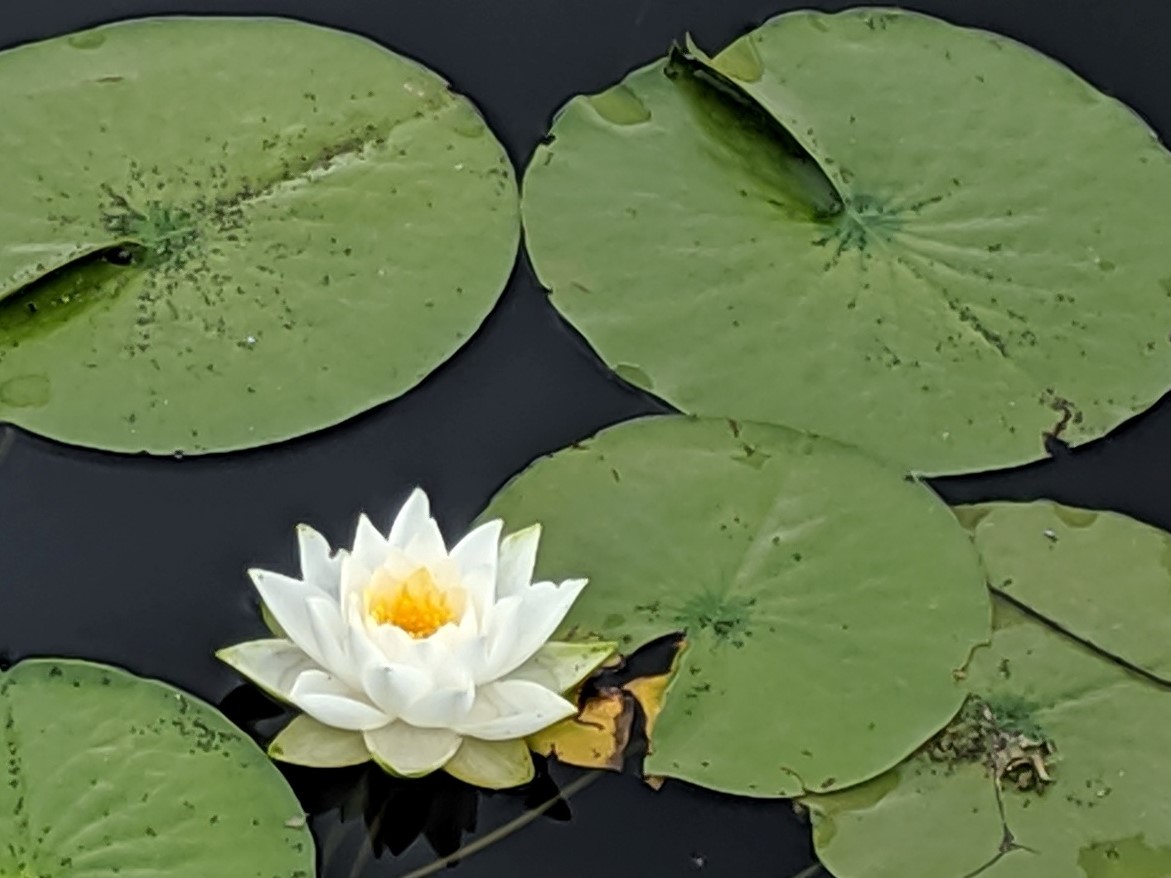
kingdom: Plantae
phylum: Tracheophyta
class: Magnoliopsida
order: Nymphaeales
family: Nymphaeaceae
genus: Nymphaea
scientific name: Nymphaea odorata
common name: Fragrant water-lily
